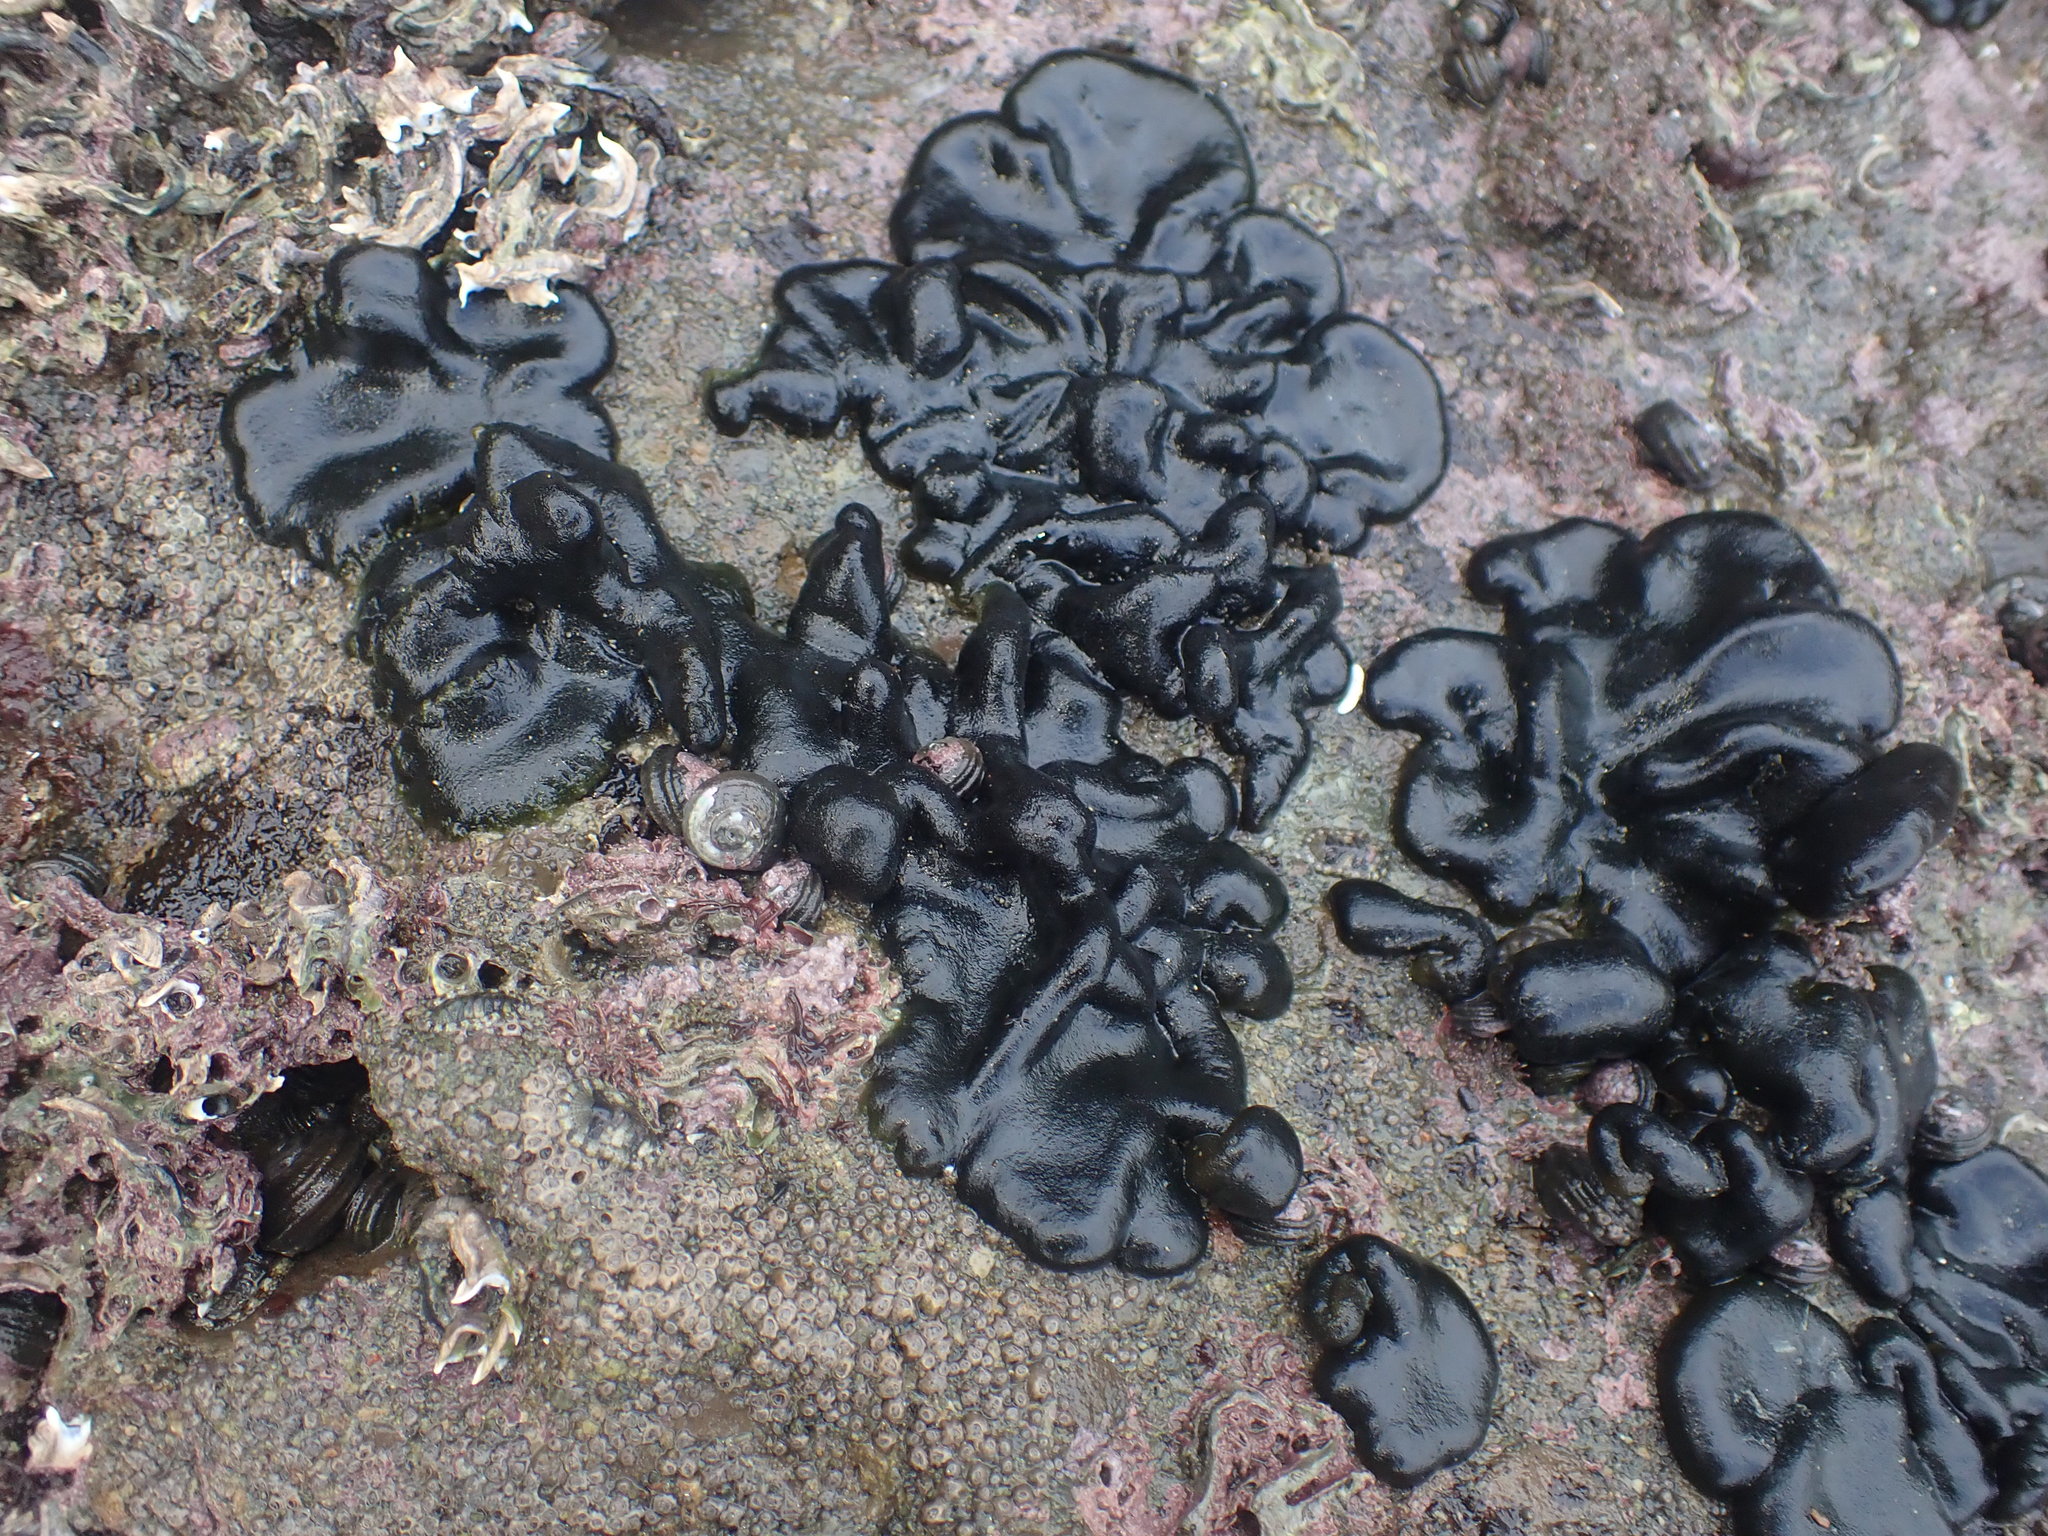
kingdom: Plantae
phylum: Chlorophyta
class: Ulvophyceae
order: Bryopsidales
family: Codiaceae
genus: Codium
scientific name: Codium convolutum
